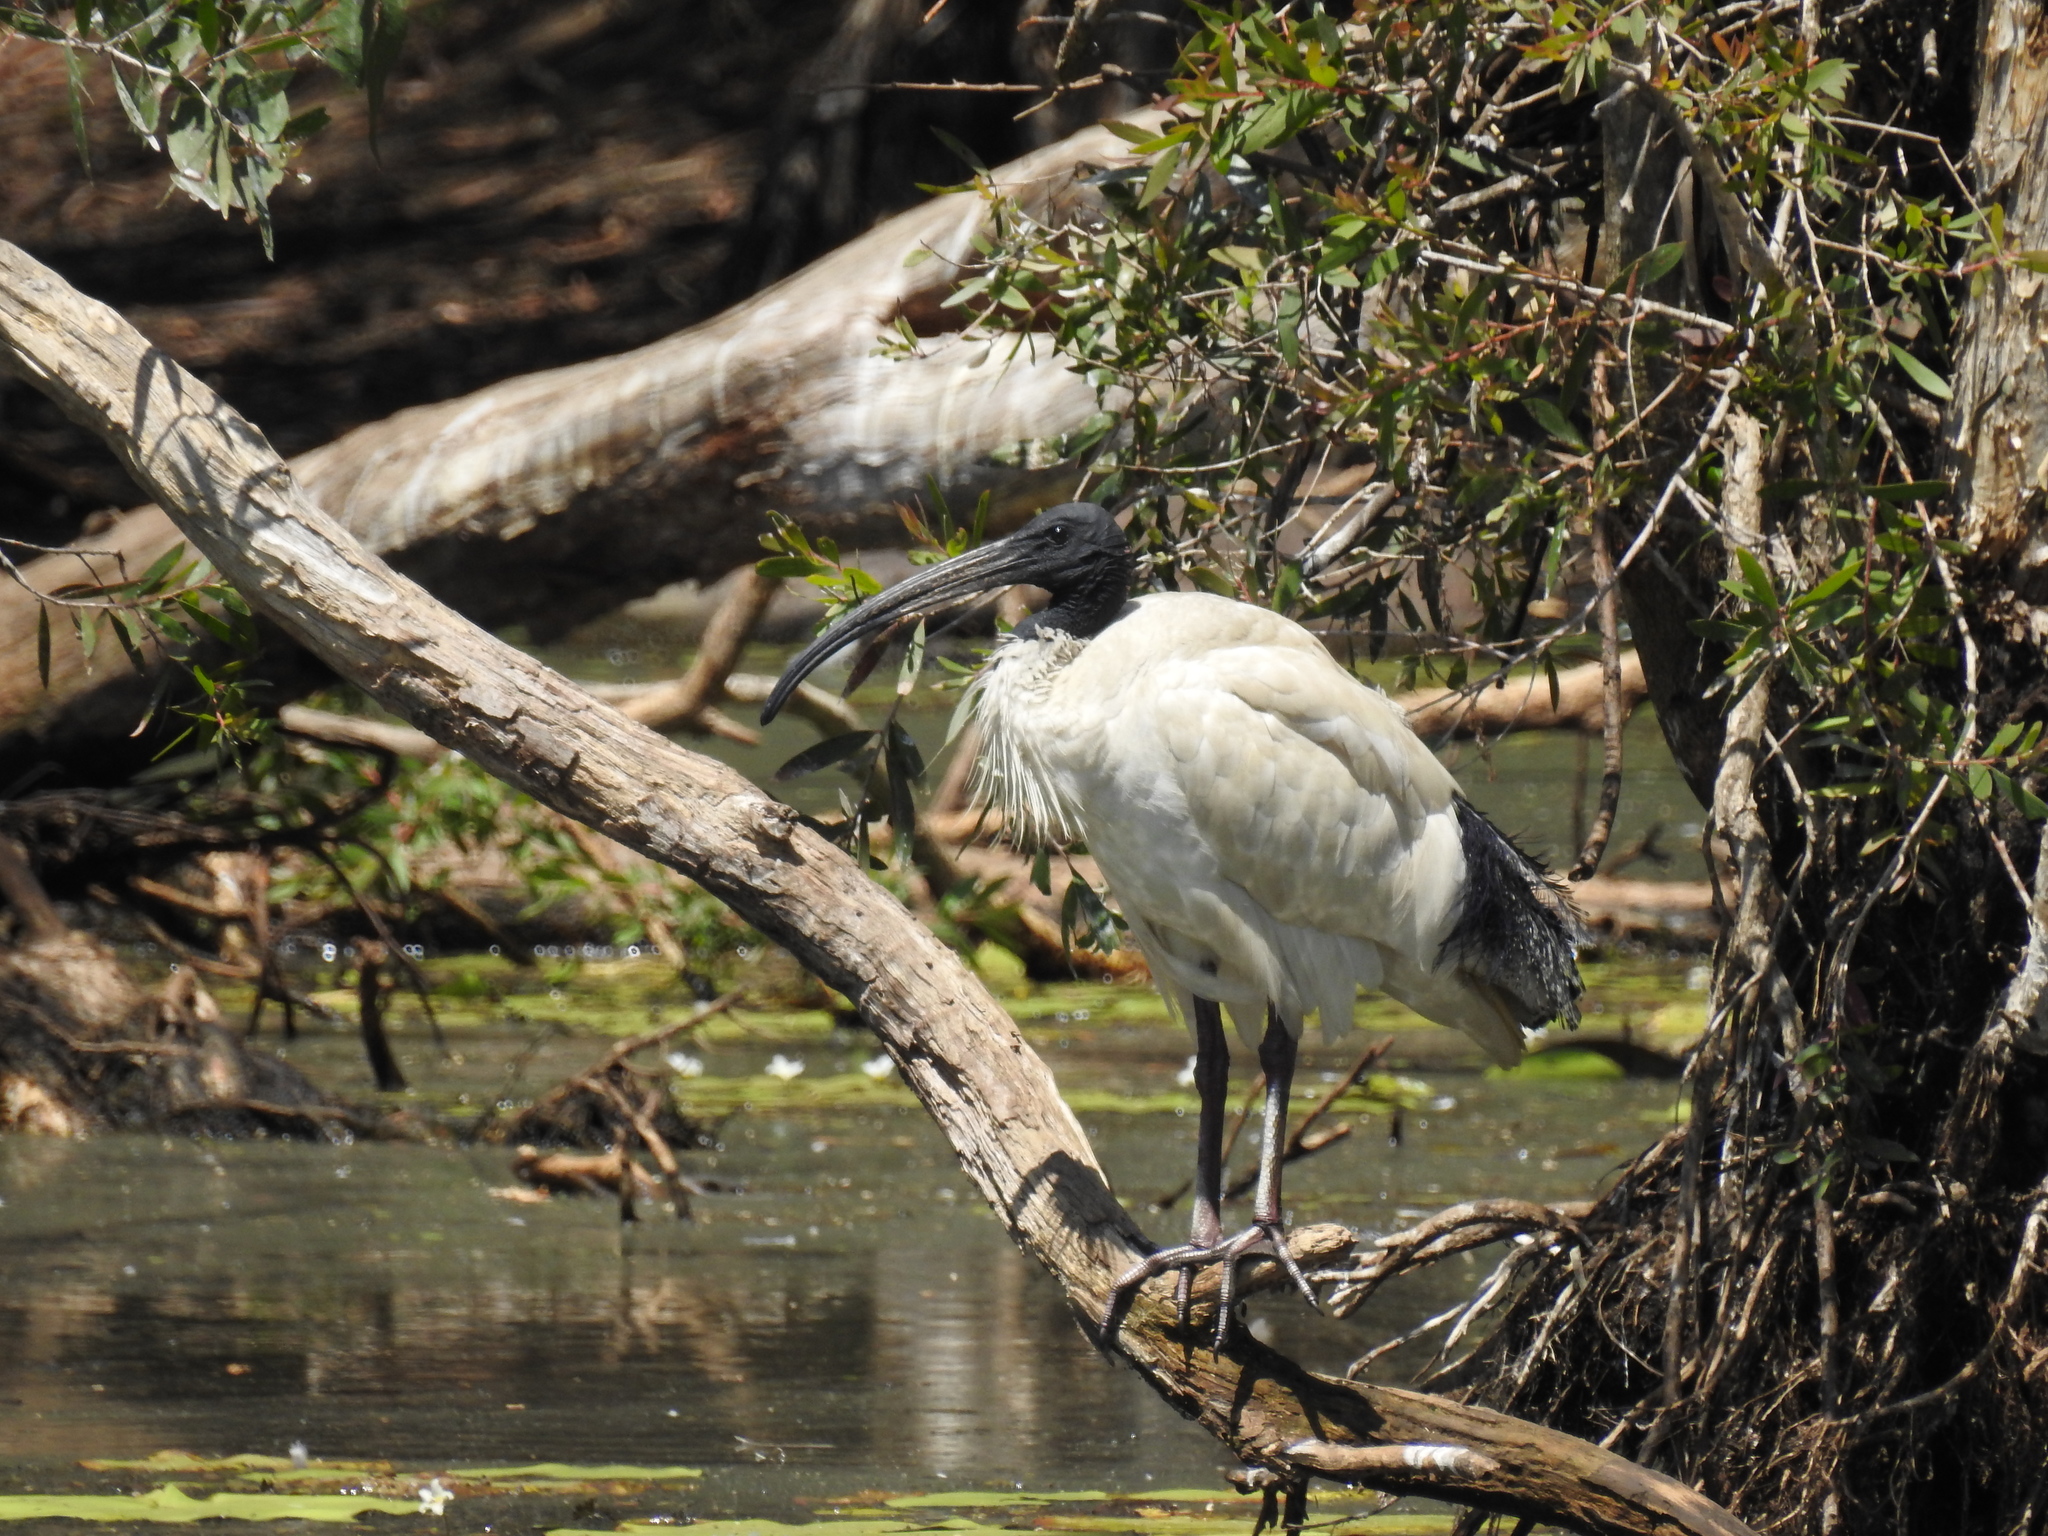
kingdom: Animalia
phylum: Chordata
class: Aves
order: Pelecaniformes
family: Threskiornithidae
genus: Threskiornis
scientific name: Threskiornis molucca
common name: Australian white ibis
